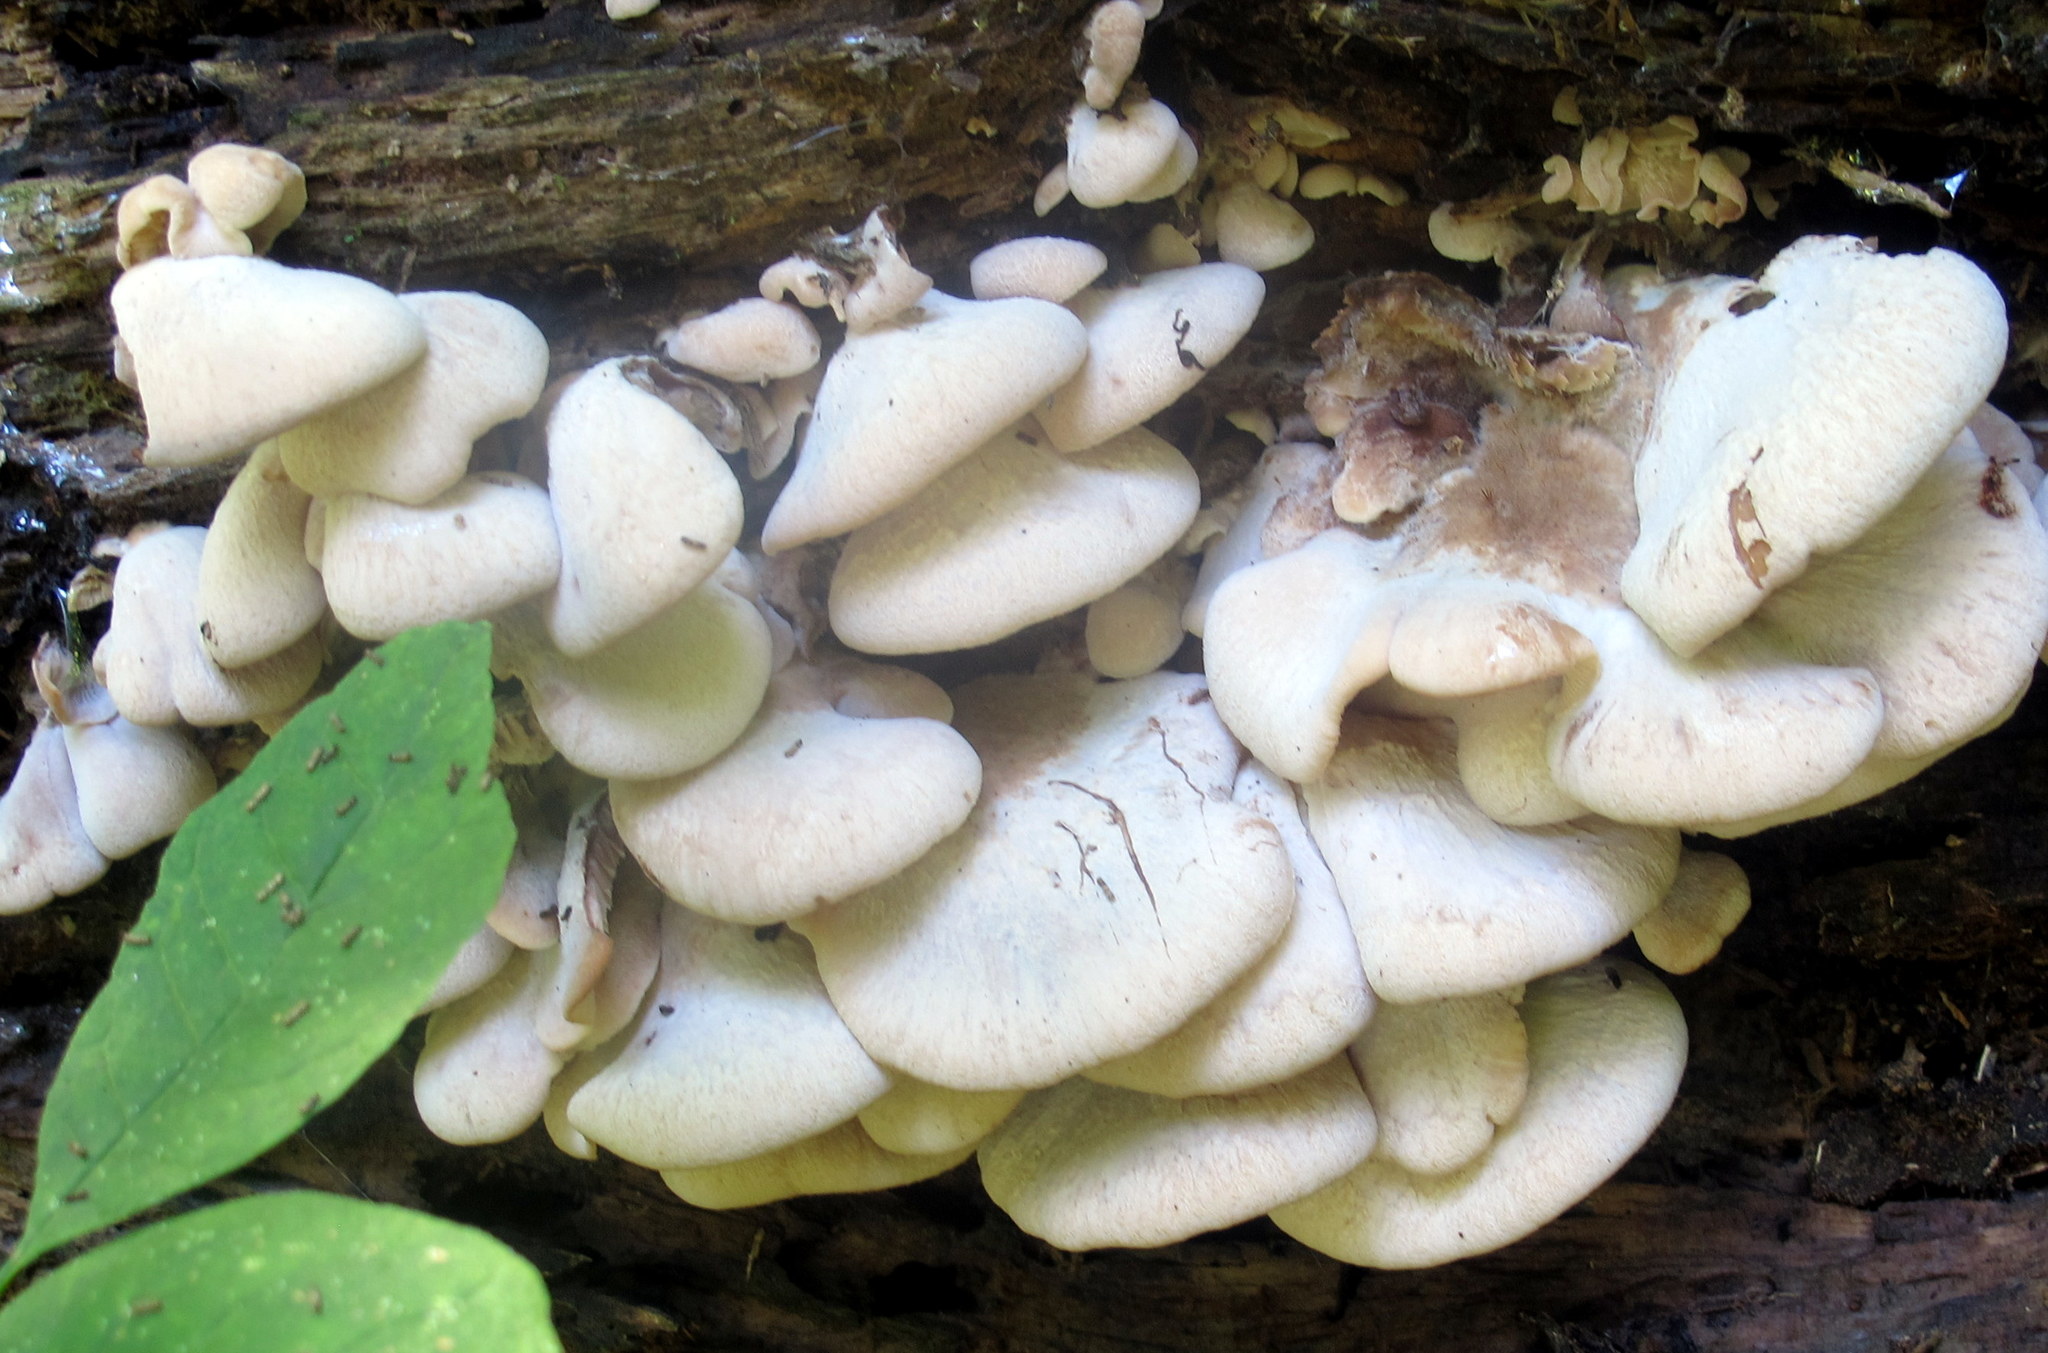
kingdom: Fungi
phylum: Basidiomycota
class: Agaricomycetes
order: Russulales
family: Auriscalpiaceae
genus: Lentinellus
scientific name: Lentinellus ursinus
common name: Bear lentinus
